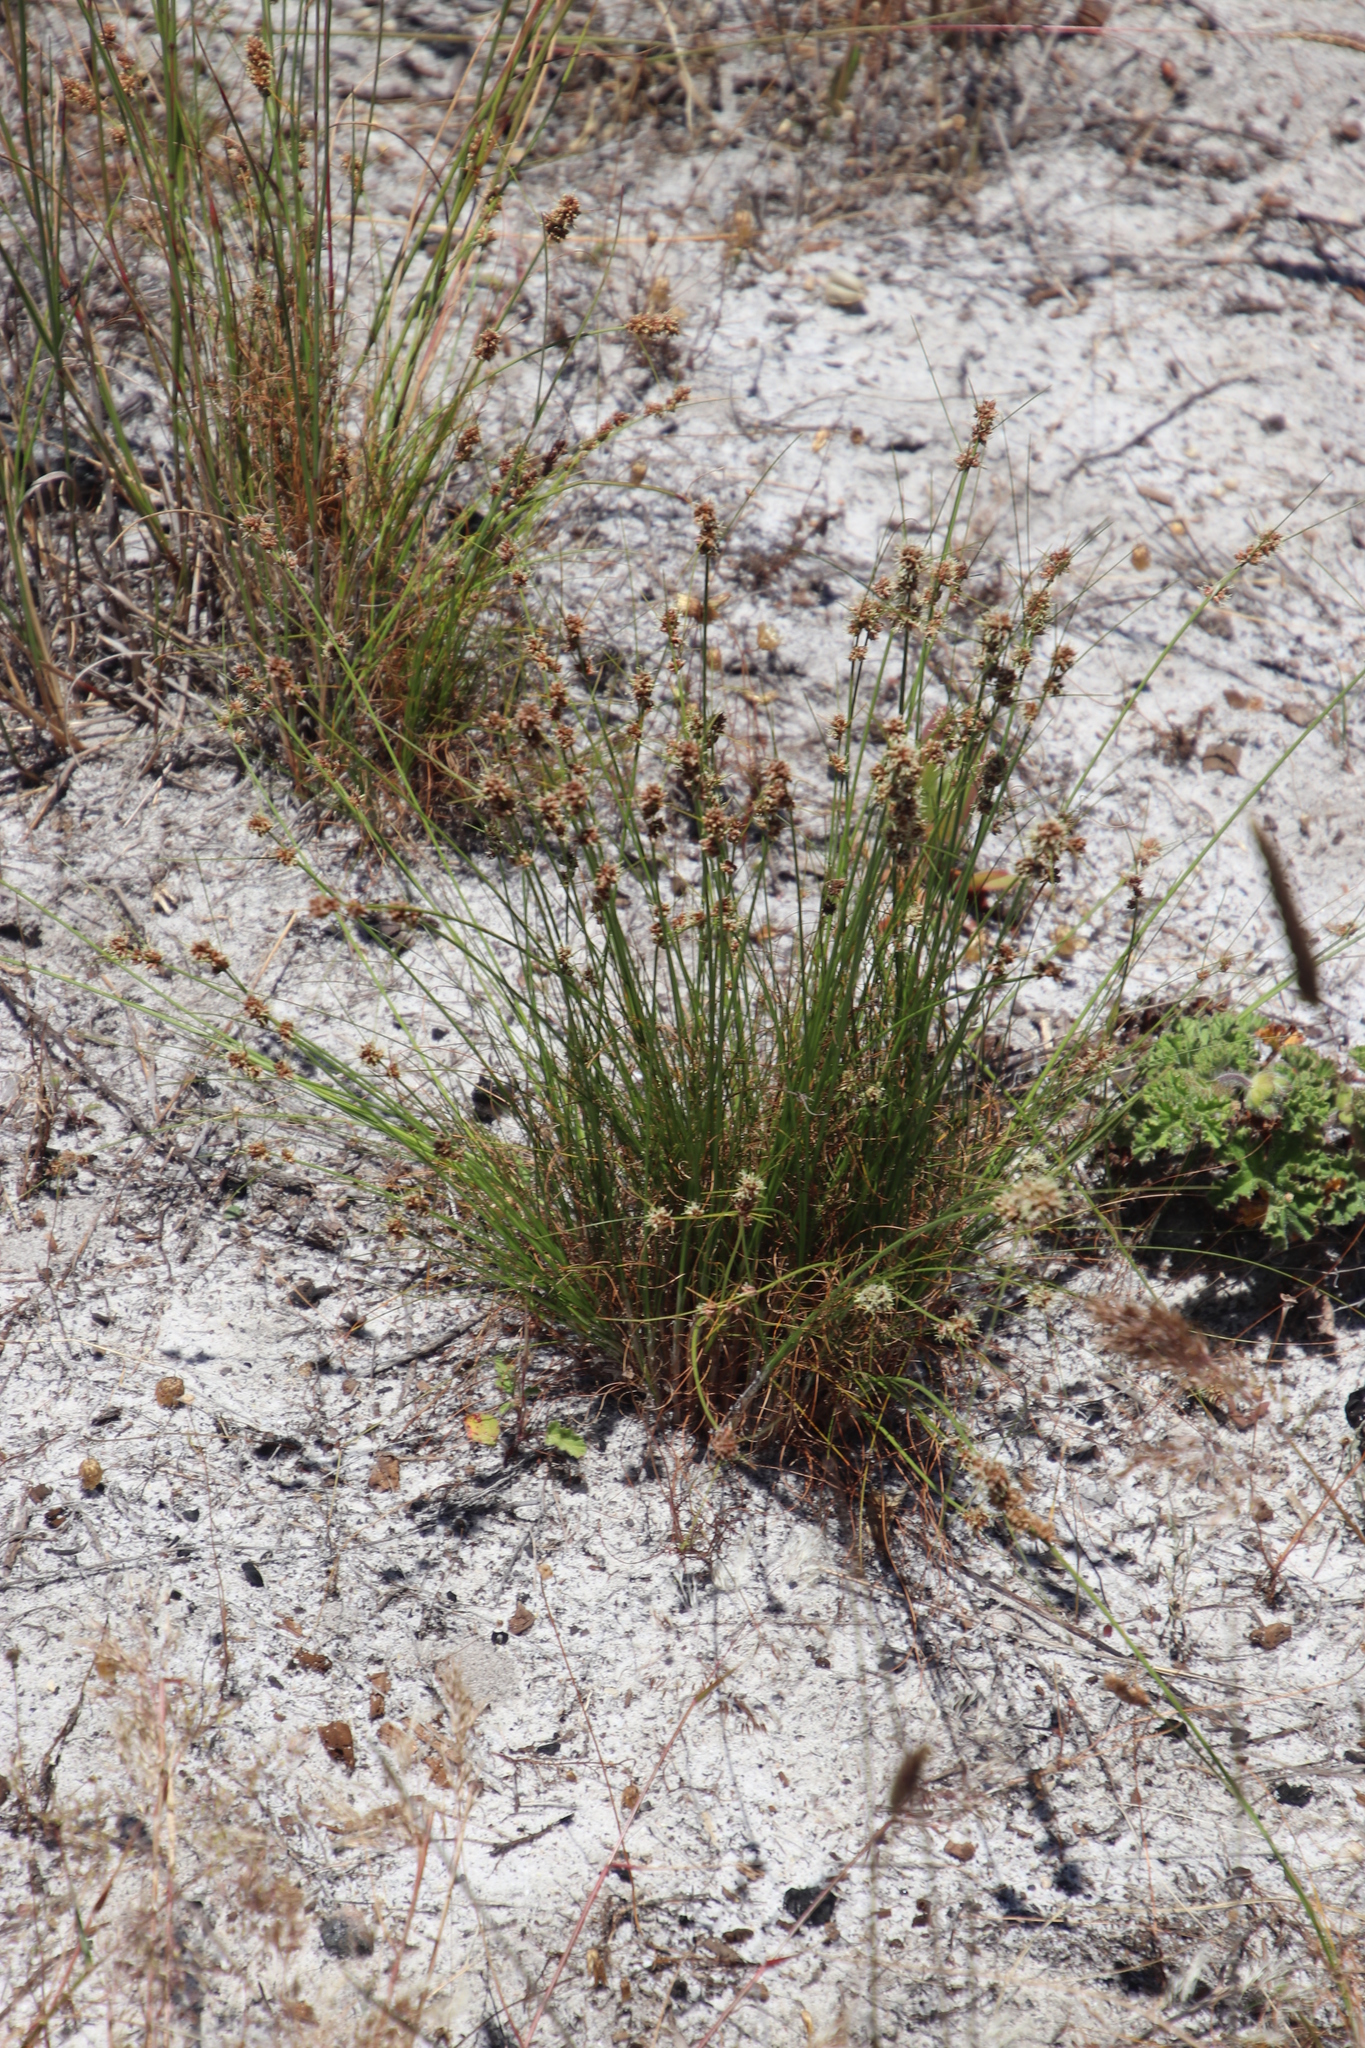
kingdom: Plantae
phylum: Tracheophyta
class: Liliopsida
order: Poales
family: Cyperaceae
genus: Ficinia
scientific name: Ficinia bulbosa
